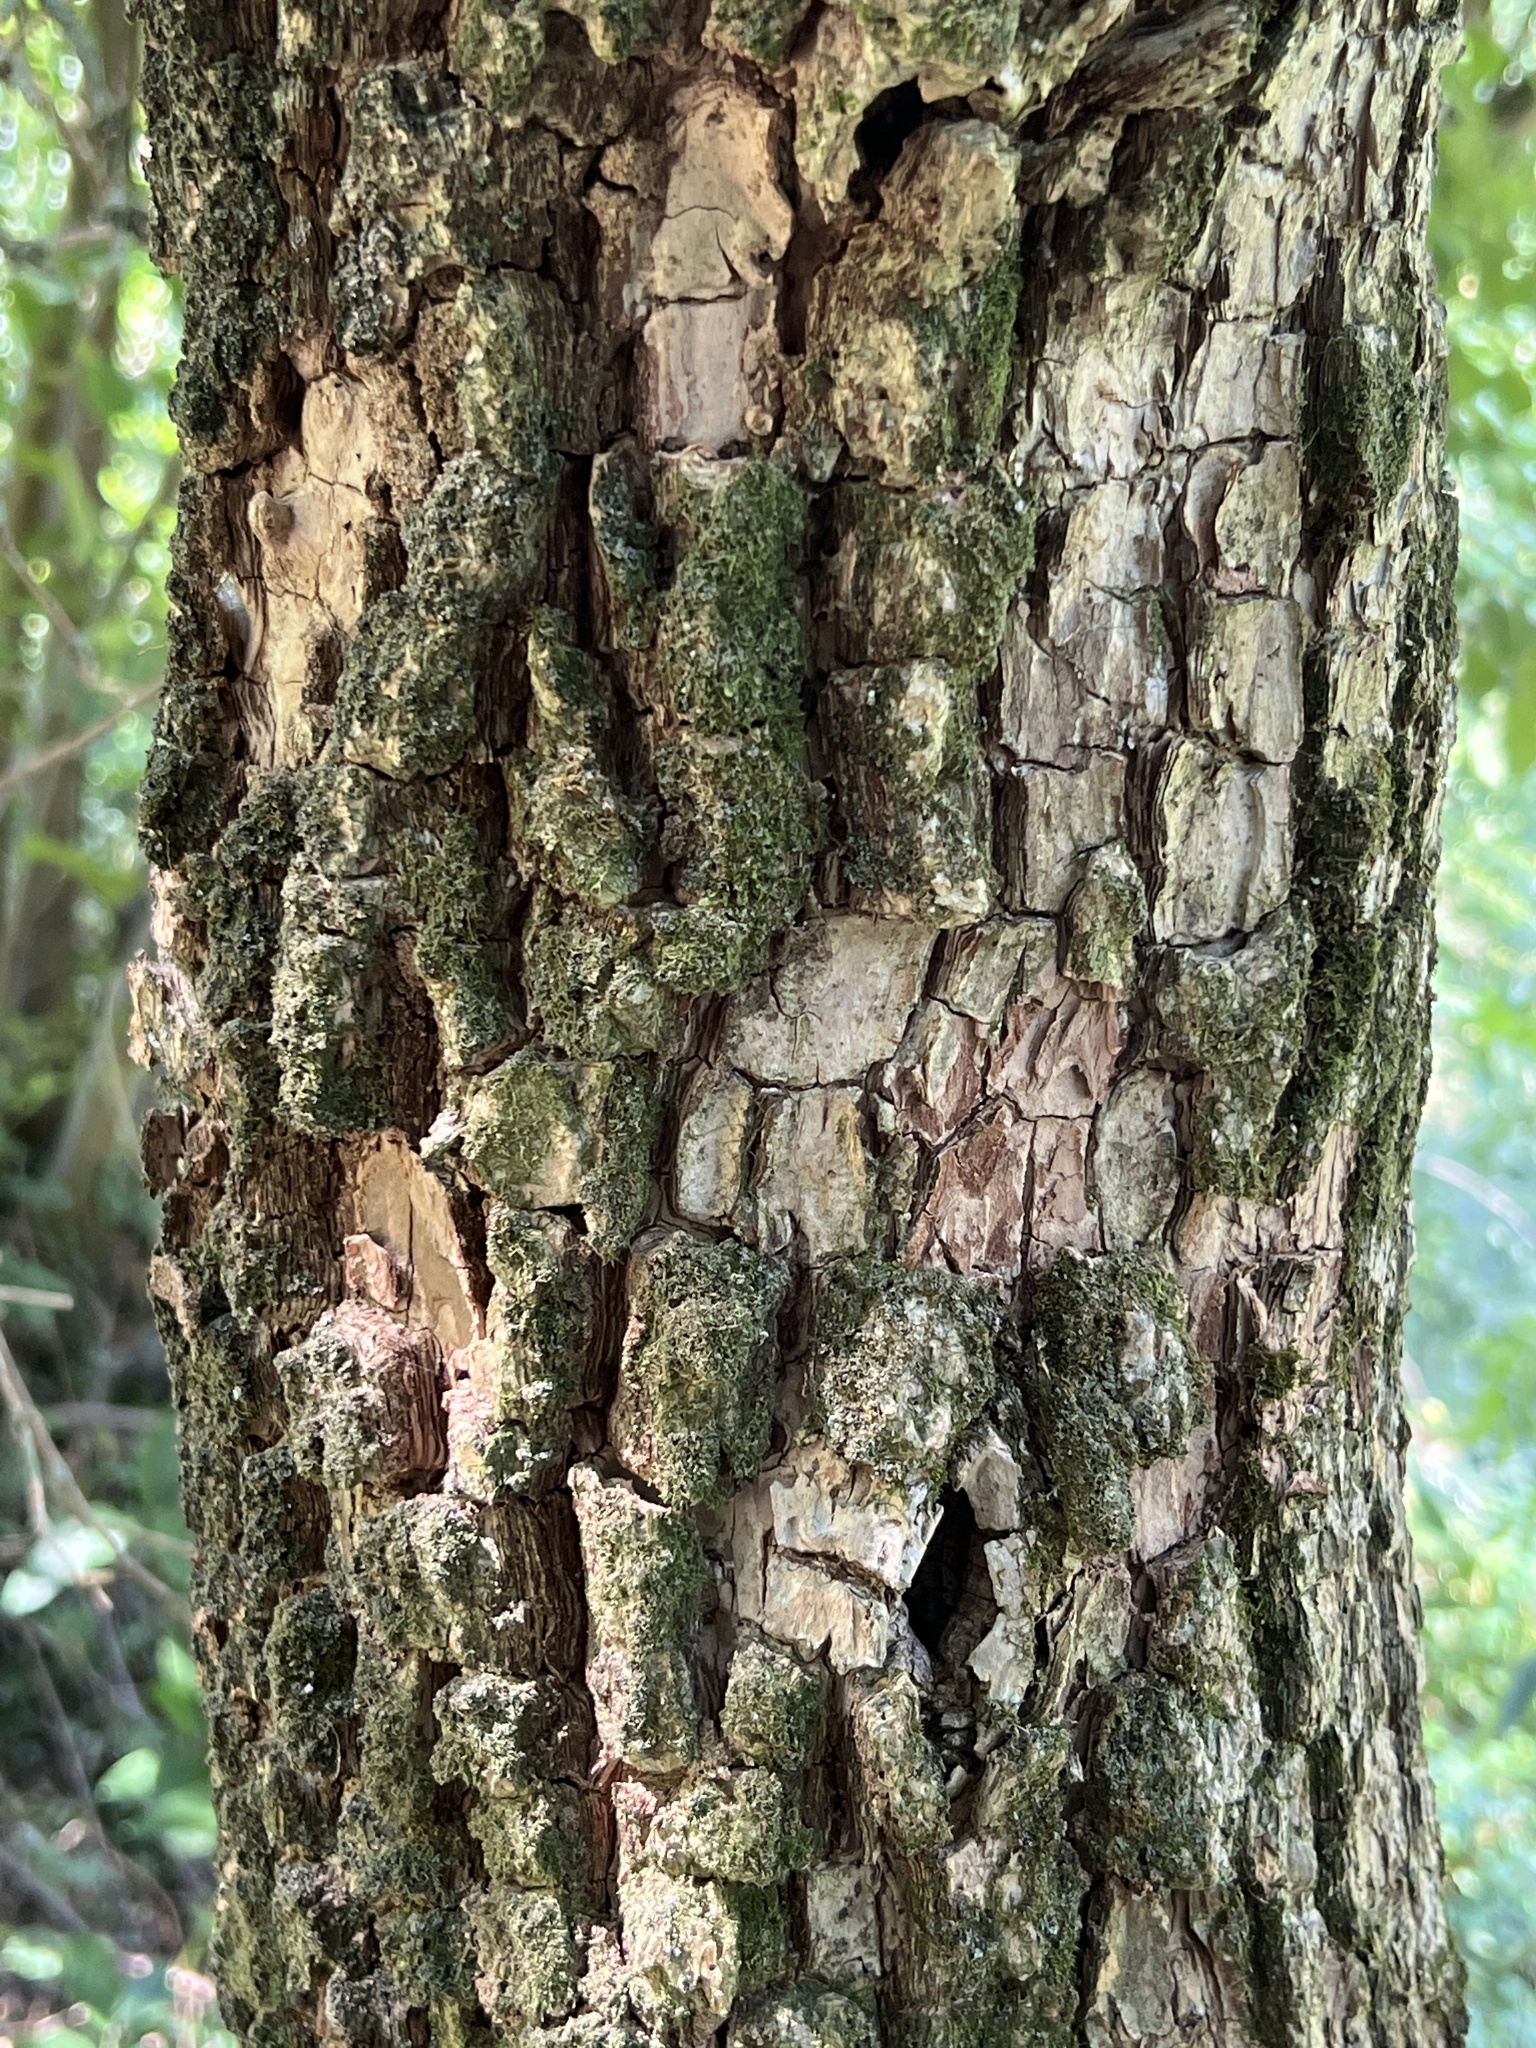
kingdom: Plantae
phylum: Tracheophyta
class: Magnoliopsida
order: Dipsacales
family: Viburnaceae
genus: Sambucus
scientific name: Sambucus nigra
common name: Elder
